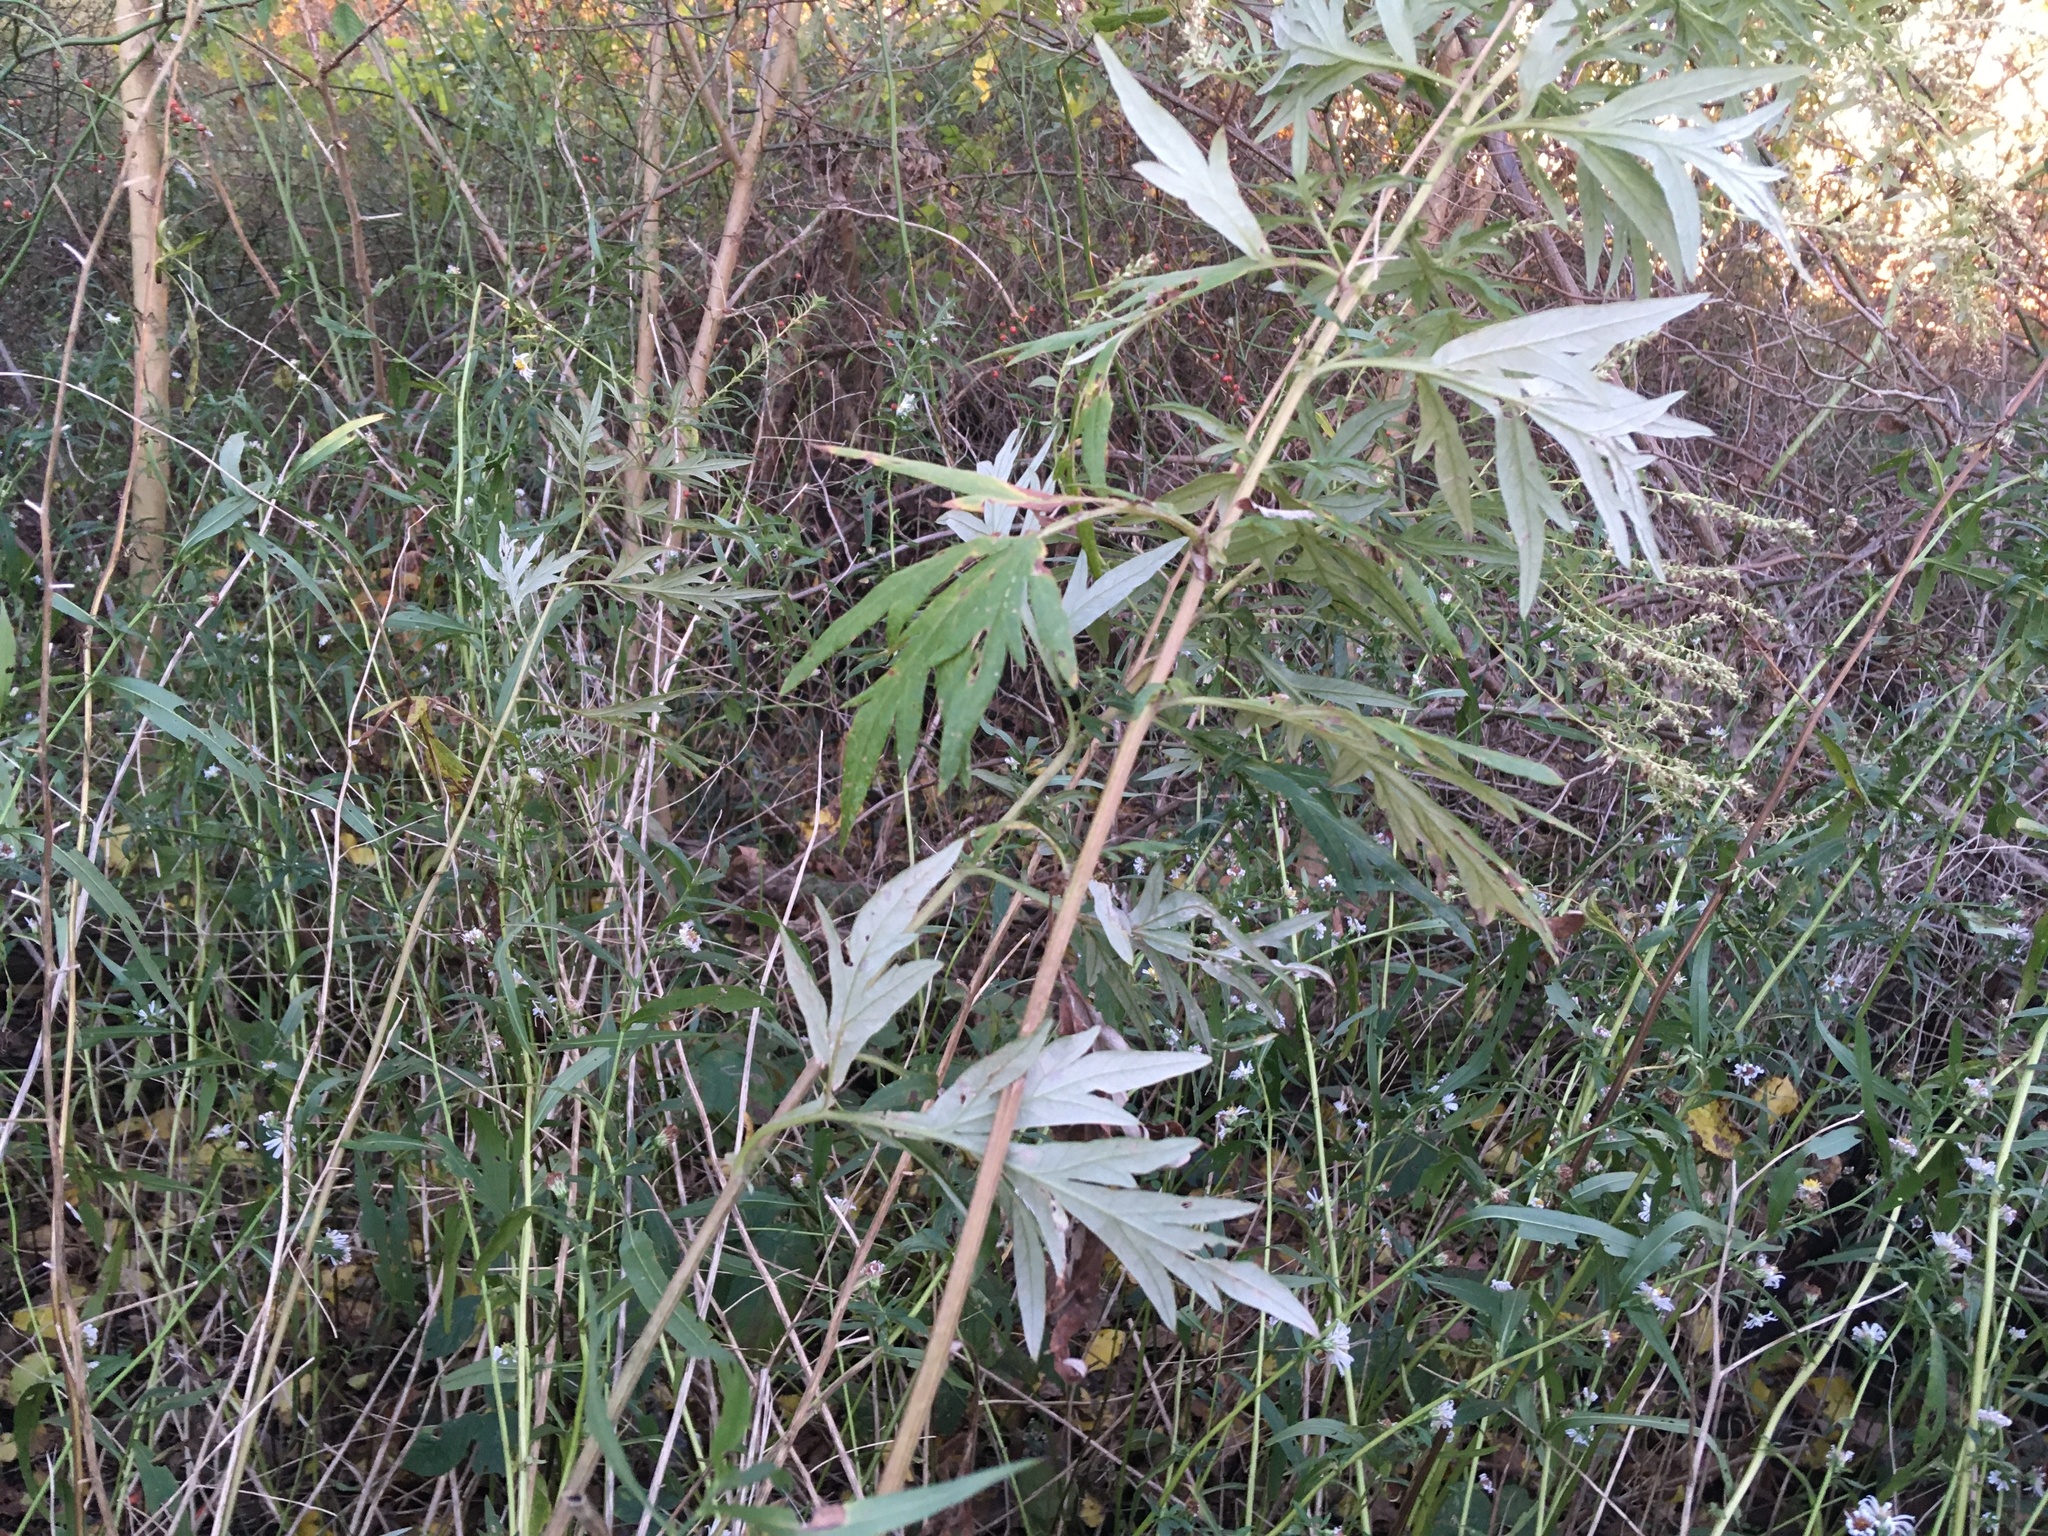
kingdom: Plantae
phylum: Tracheophyta
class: Magnoliopsida
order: Asterales
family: Asteraceae
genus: Artemisia
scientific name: Artemisia vulgaris
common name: Mugwort
